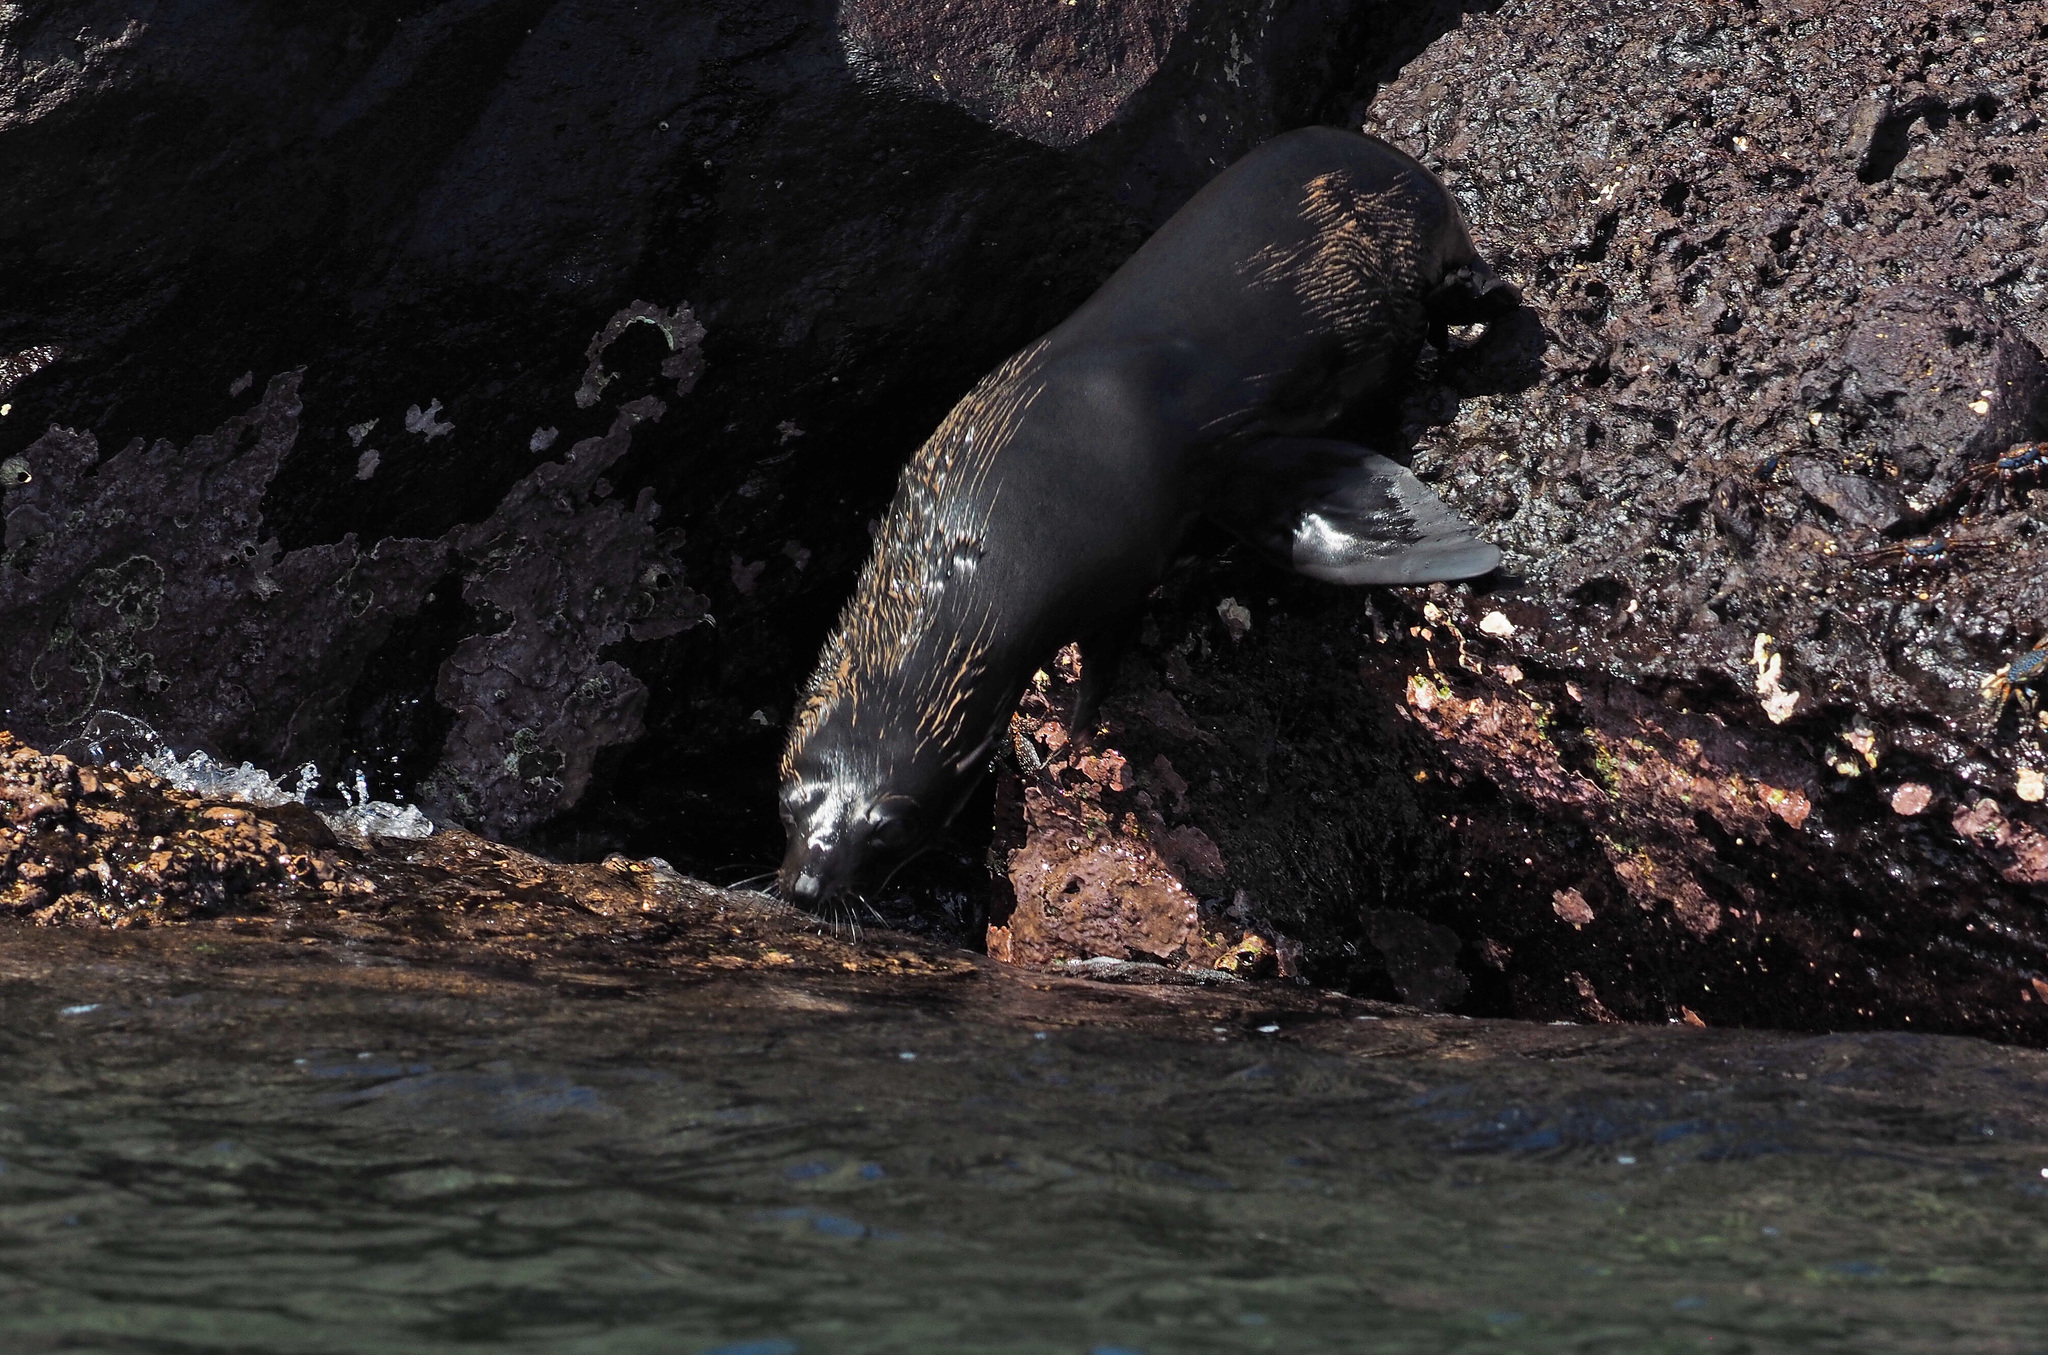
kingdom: Animalia
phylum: Chordata
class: Mammalia
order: Carnivora
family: Otariidae
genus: Arctocephalus
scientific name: Arctocephalus galapagoensis
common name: Galapagos fur seal
